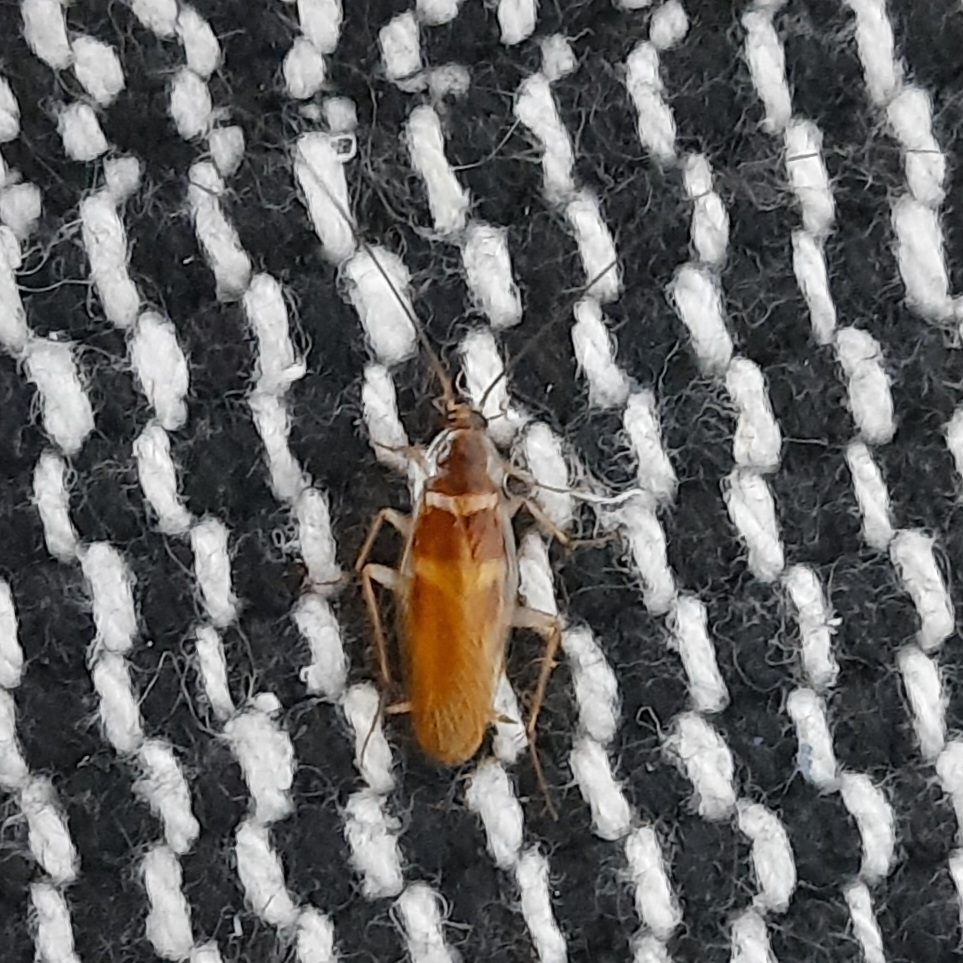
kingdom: Animalia
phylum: Arthropoda
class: Insecta
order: Blattodea
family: Ectobiidae
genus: Supella
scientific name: Supella longipalpa
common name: Brown-banded cockroach
